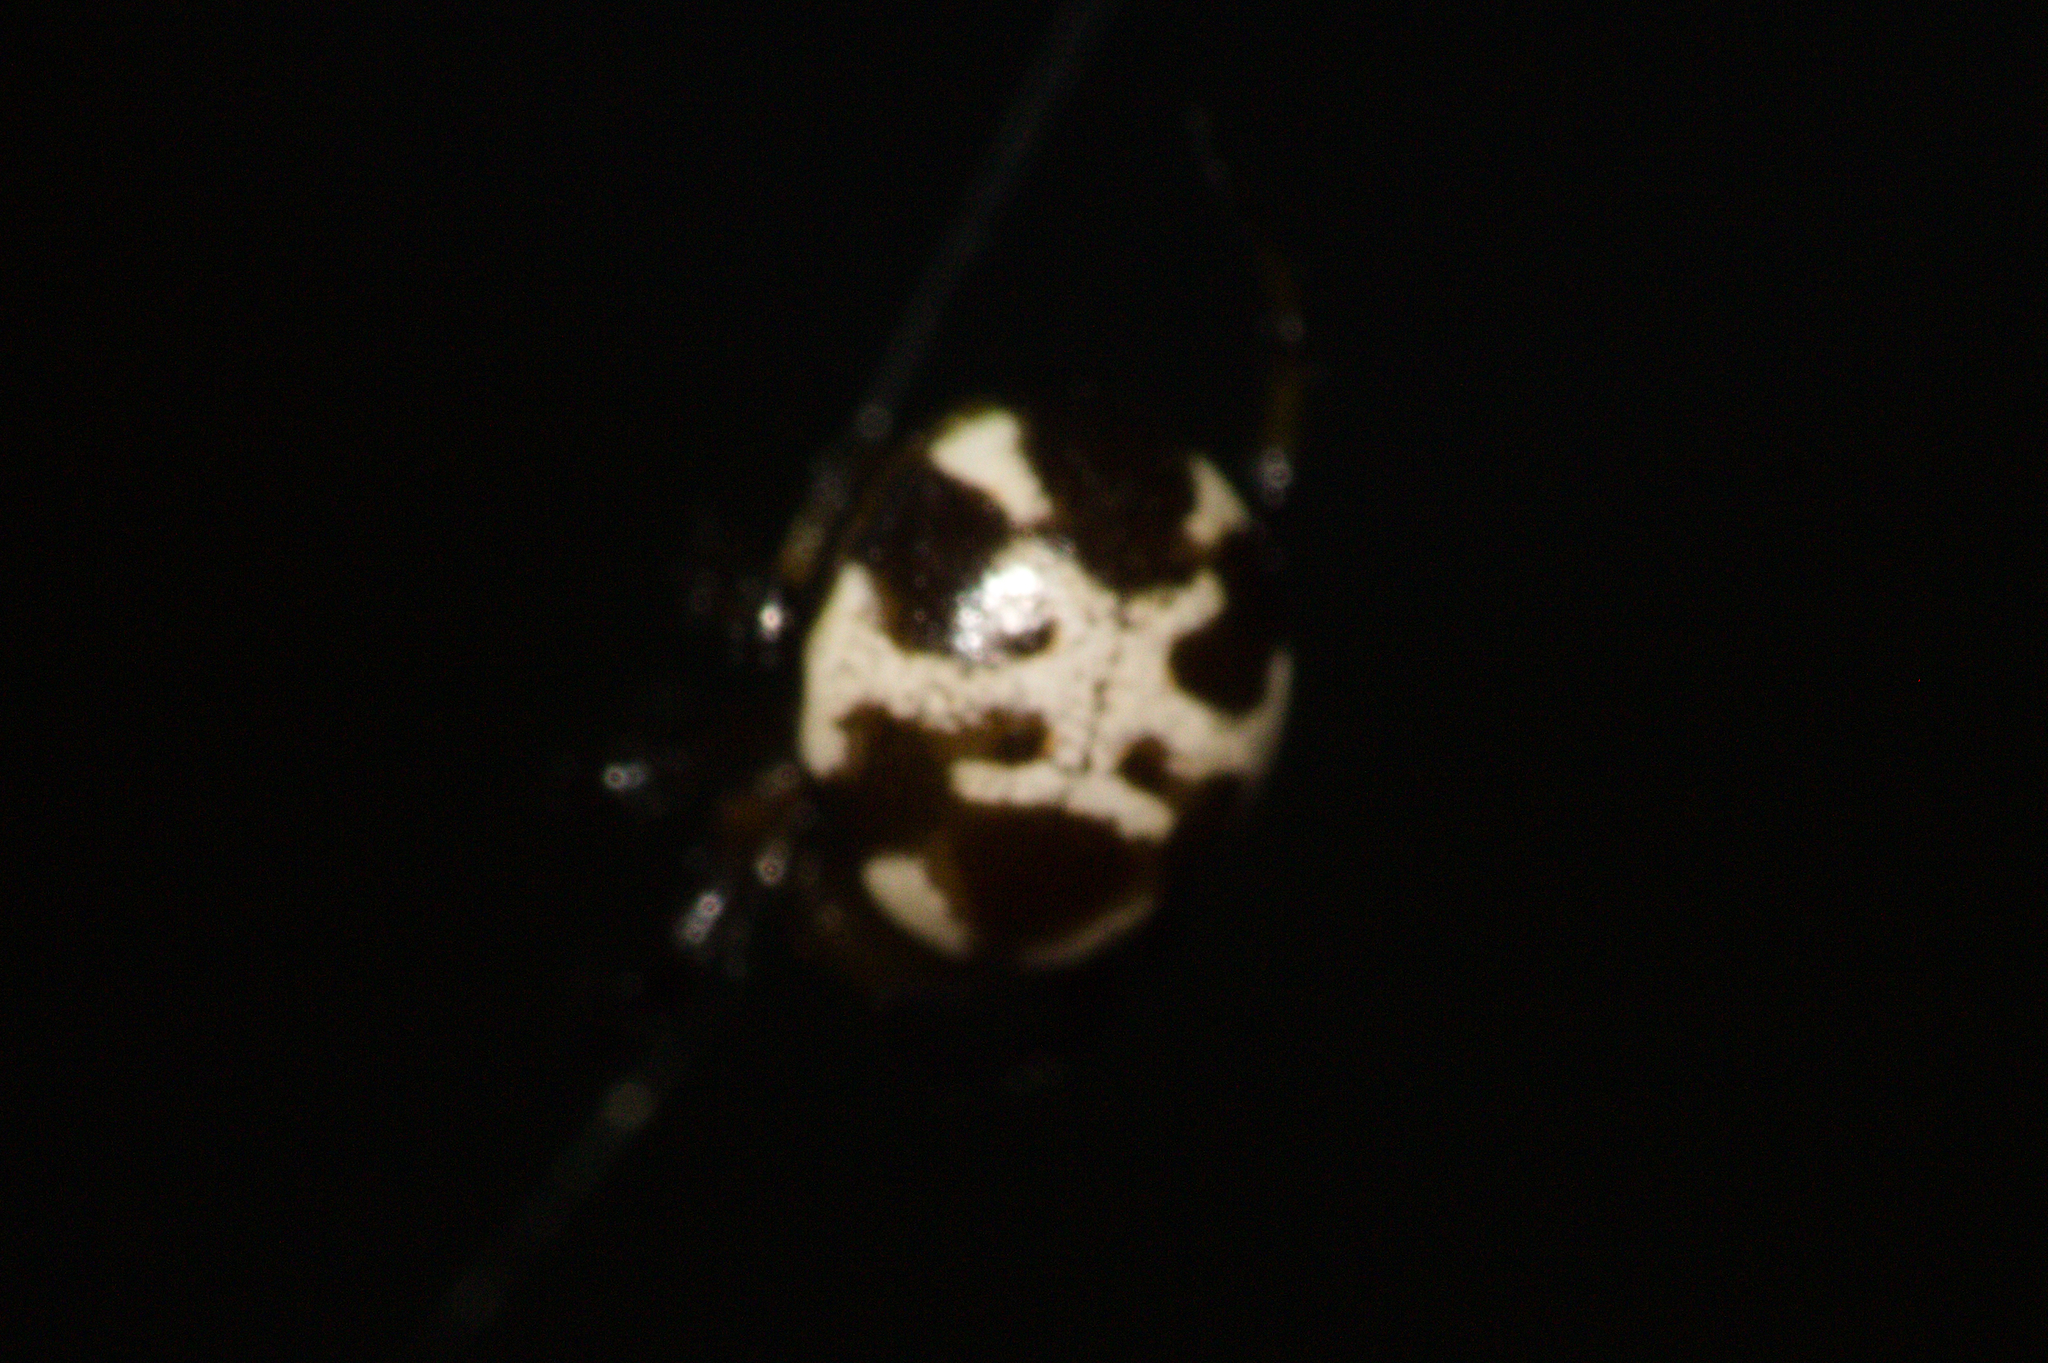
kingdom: Animalia
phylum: Arthropoda
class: Arachnida
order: Araneae
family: Araneidae
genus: Anepsion
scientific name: Anepsion maritatum
